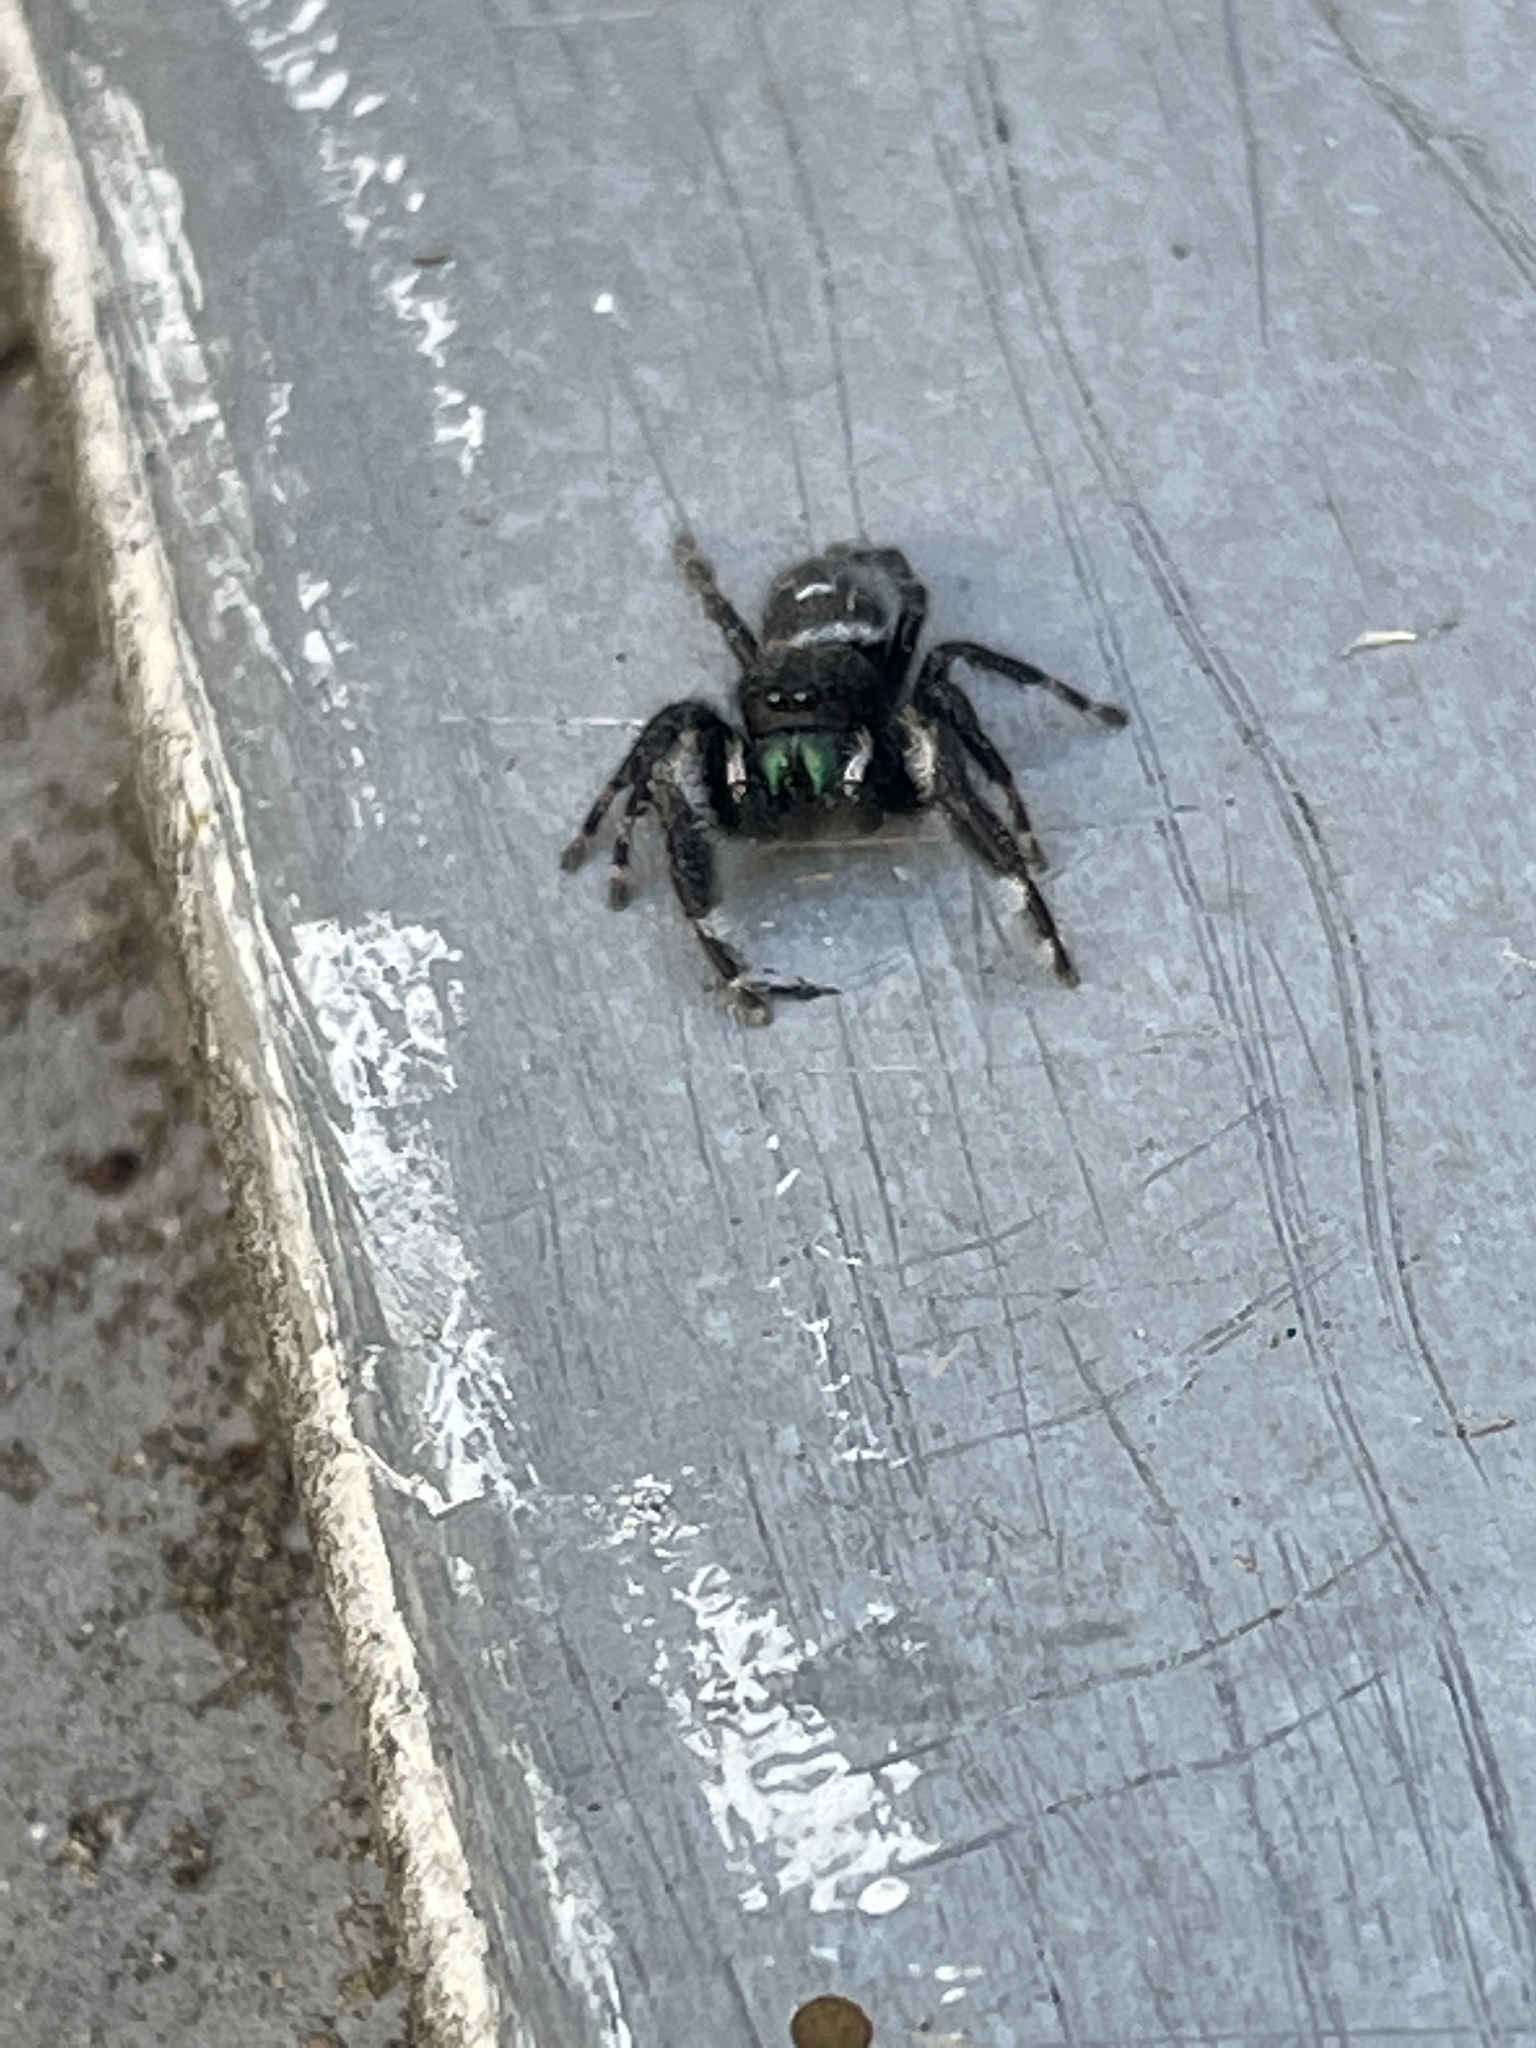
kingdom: Animalia
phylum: Arthropoda
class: Arachnida
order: Araneae
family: Salticidae
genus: Phidippus
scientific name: Phidippus audax
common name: Bold jumper
